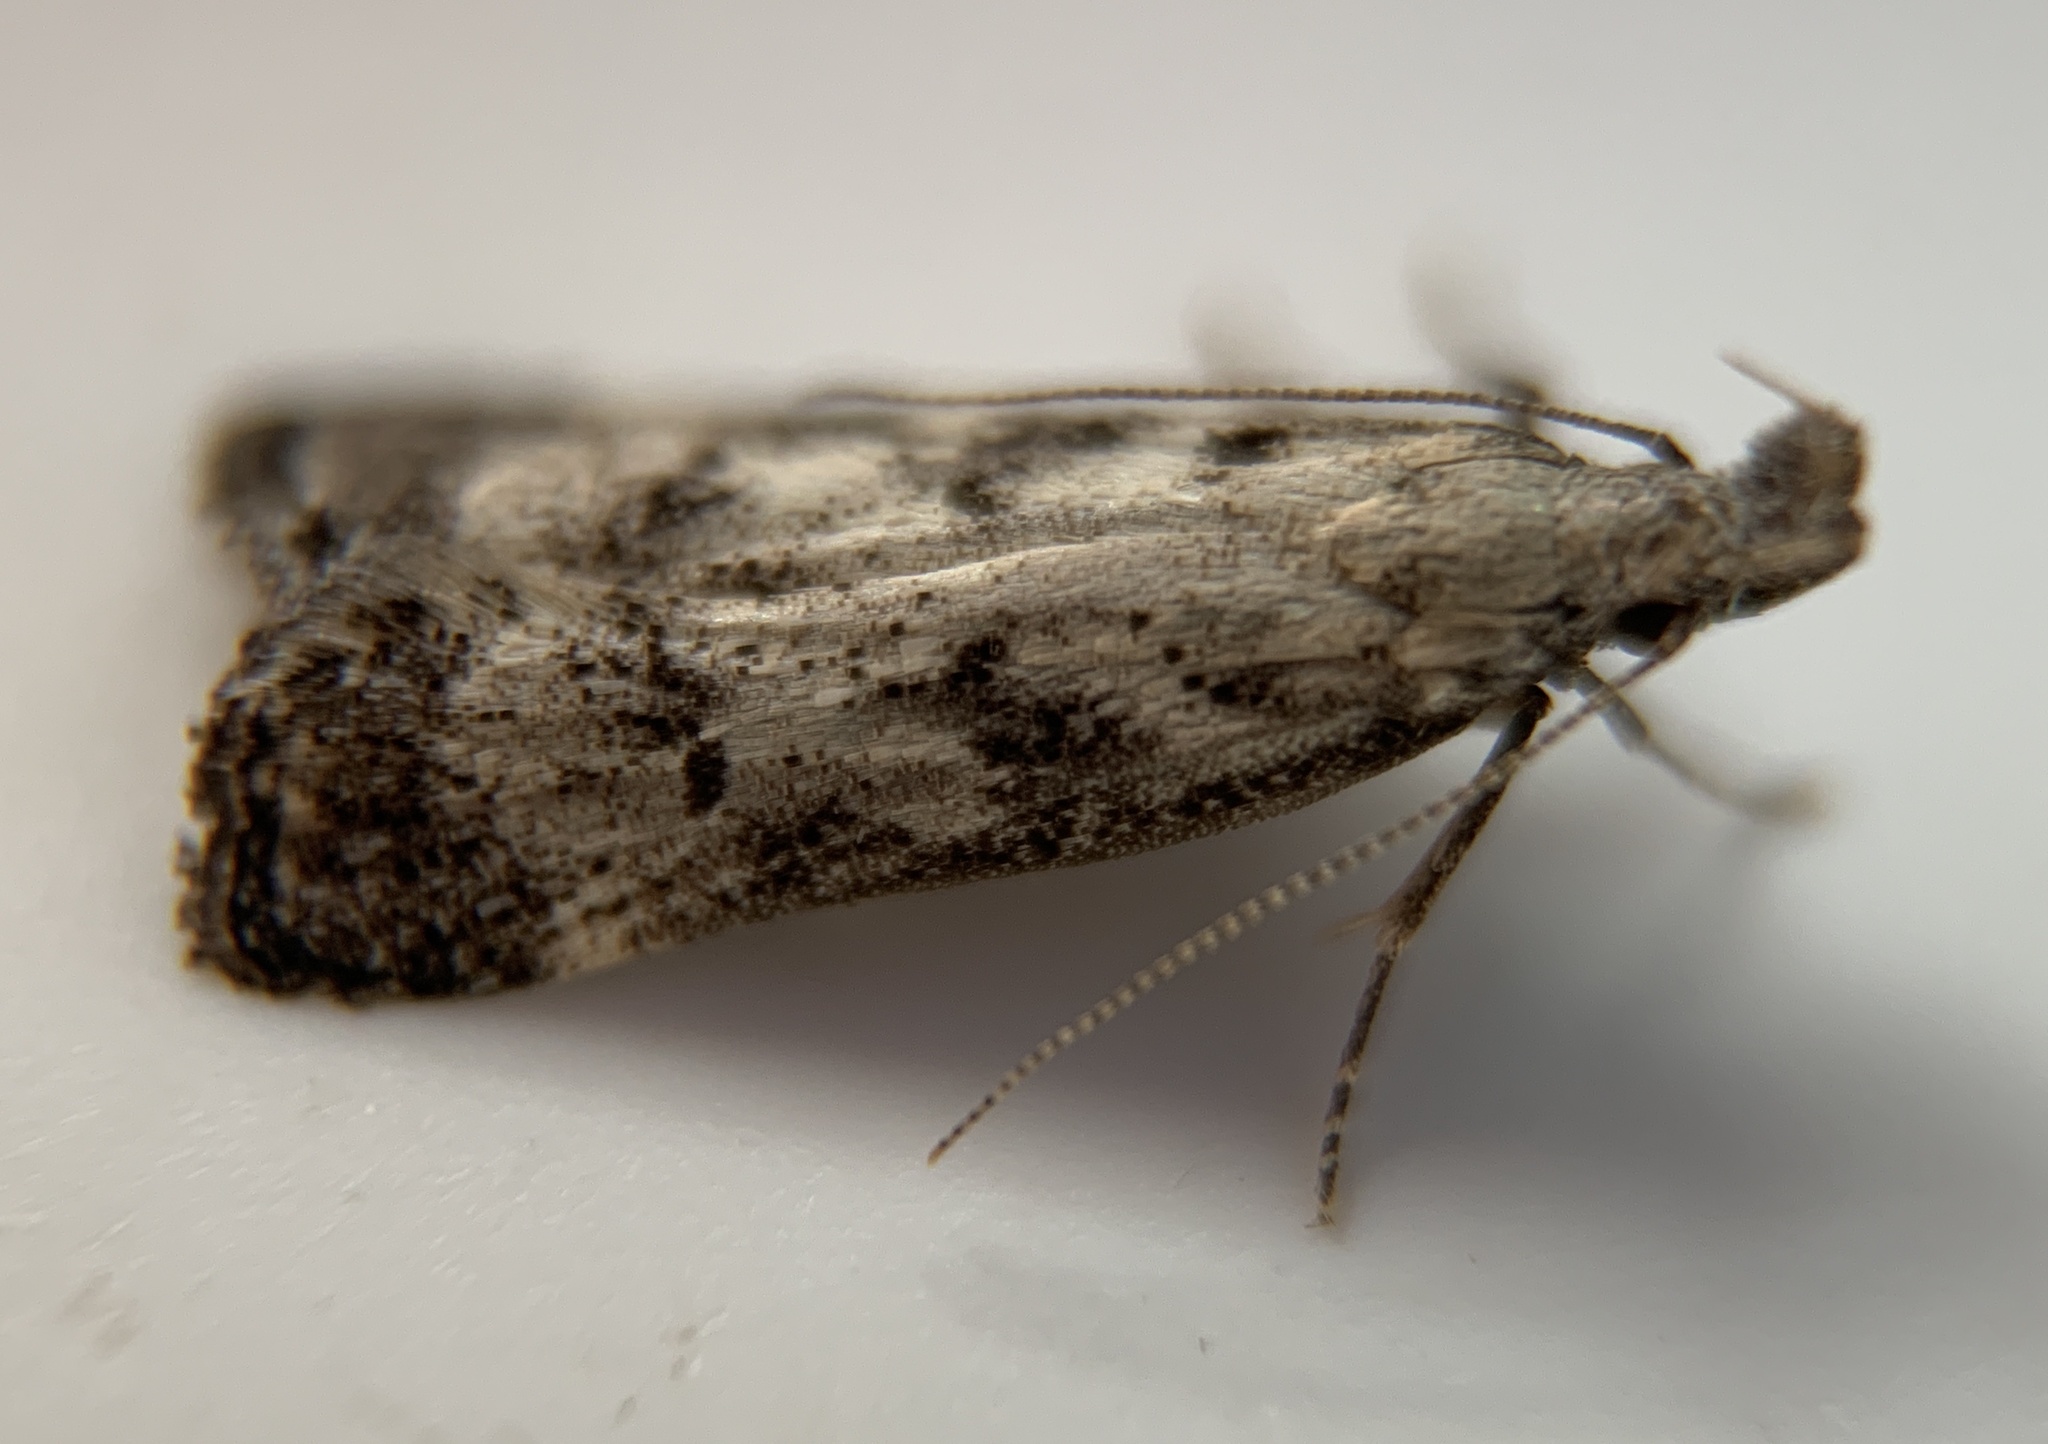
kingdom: Animalia
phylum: Arthropoda
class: Insecta
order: Lepidoptera
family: Gelechiidae
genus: Dichomeris
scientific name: Dichomeris inversella
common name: Inverse dichomeris moth
